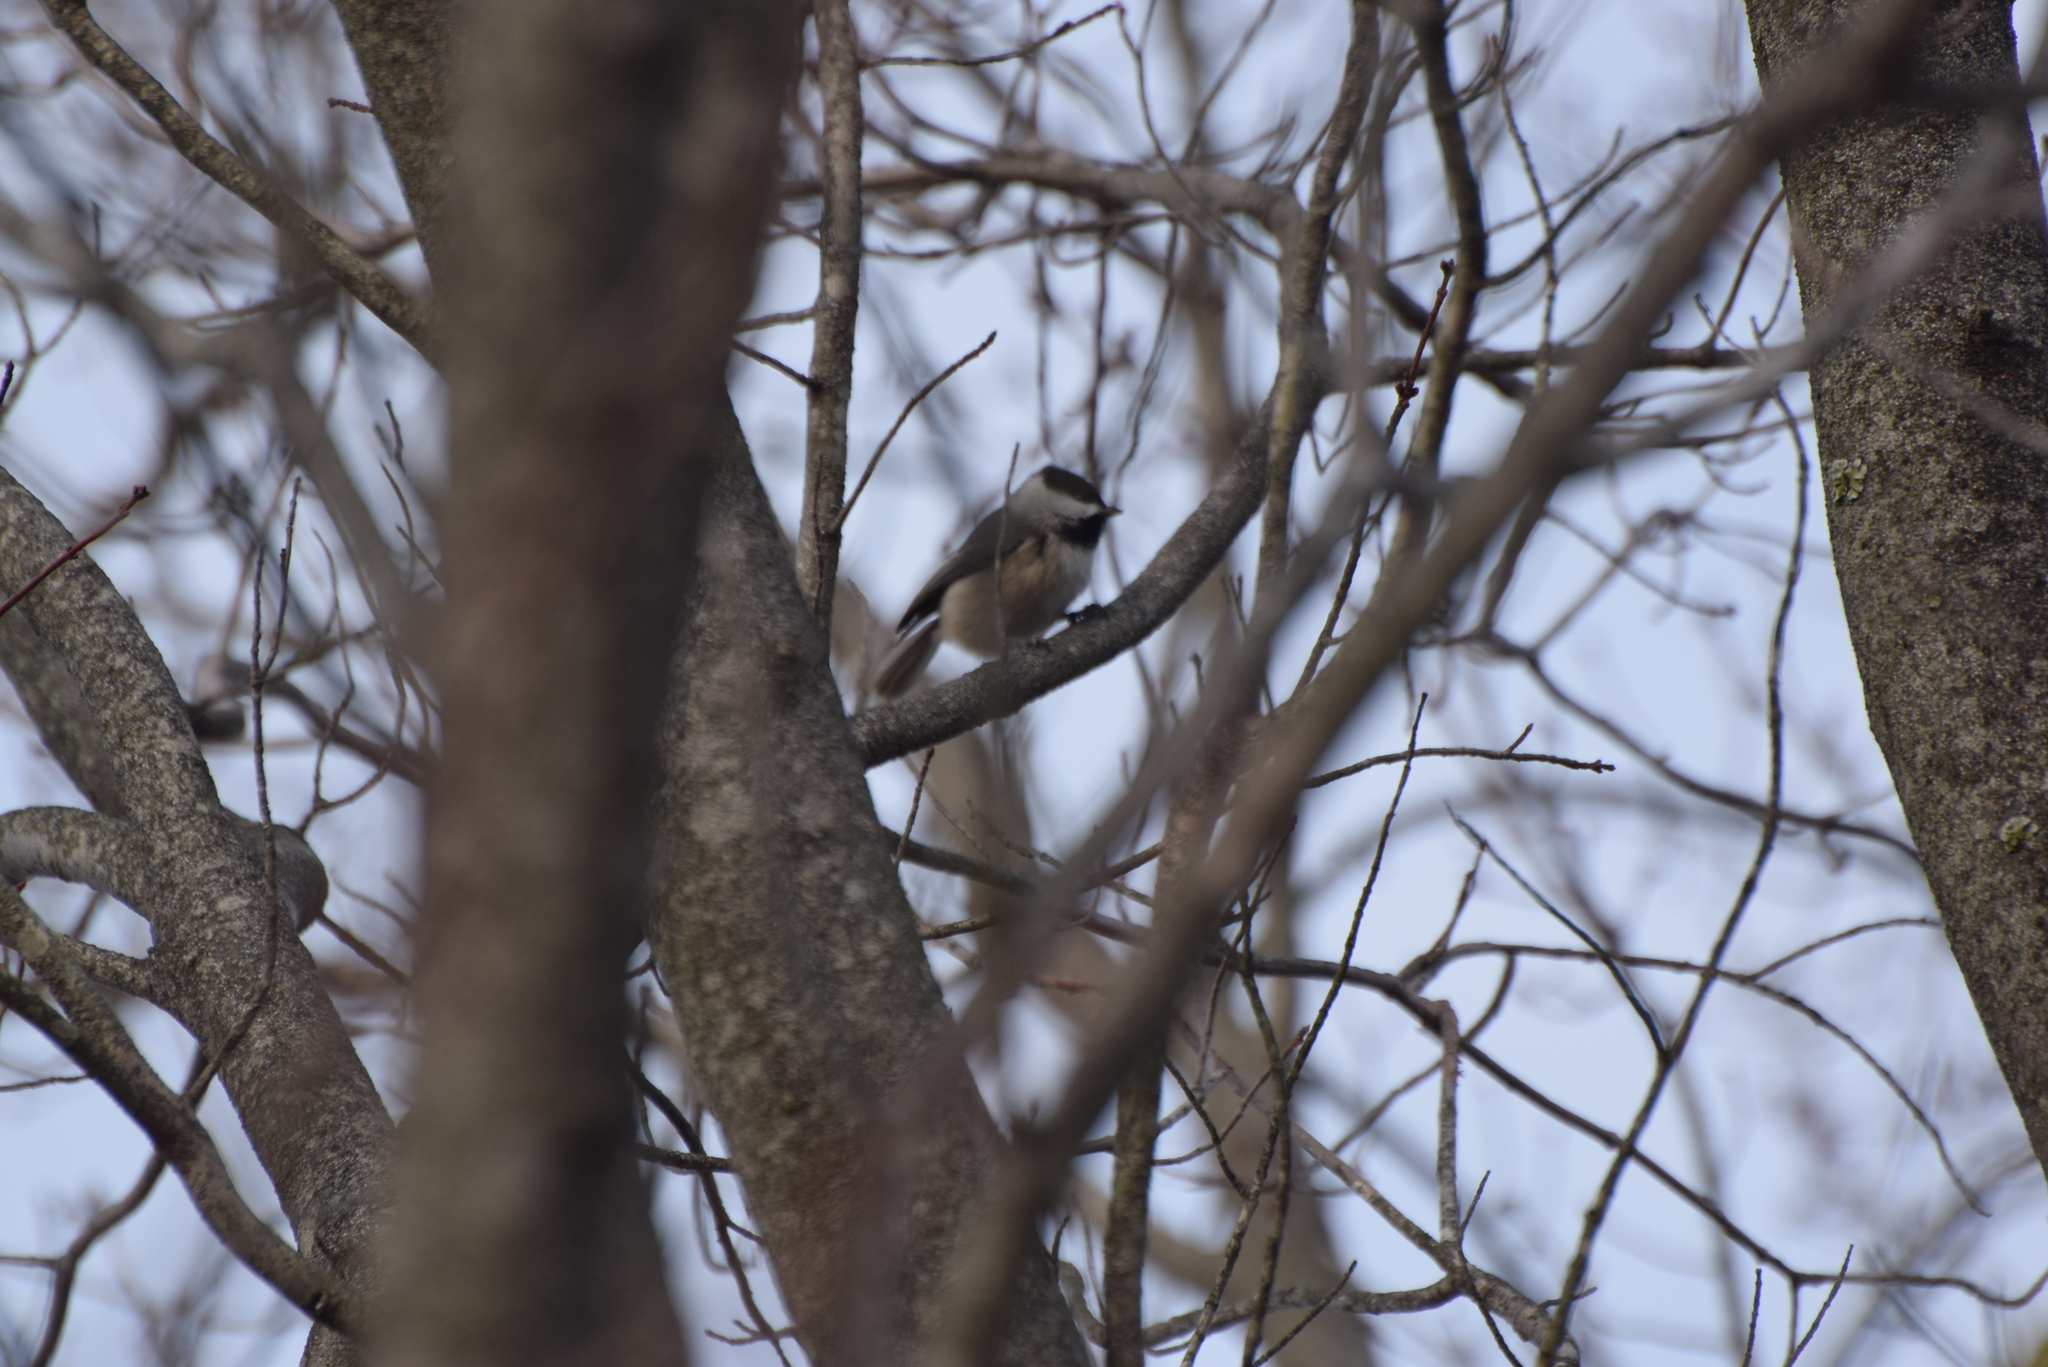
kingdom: Animalia
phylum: Chordata
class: Aves
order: Passeriformes
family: Paridae
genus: Poecile
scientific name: Poecile carolinensis
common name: Carolina chickadee
